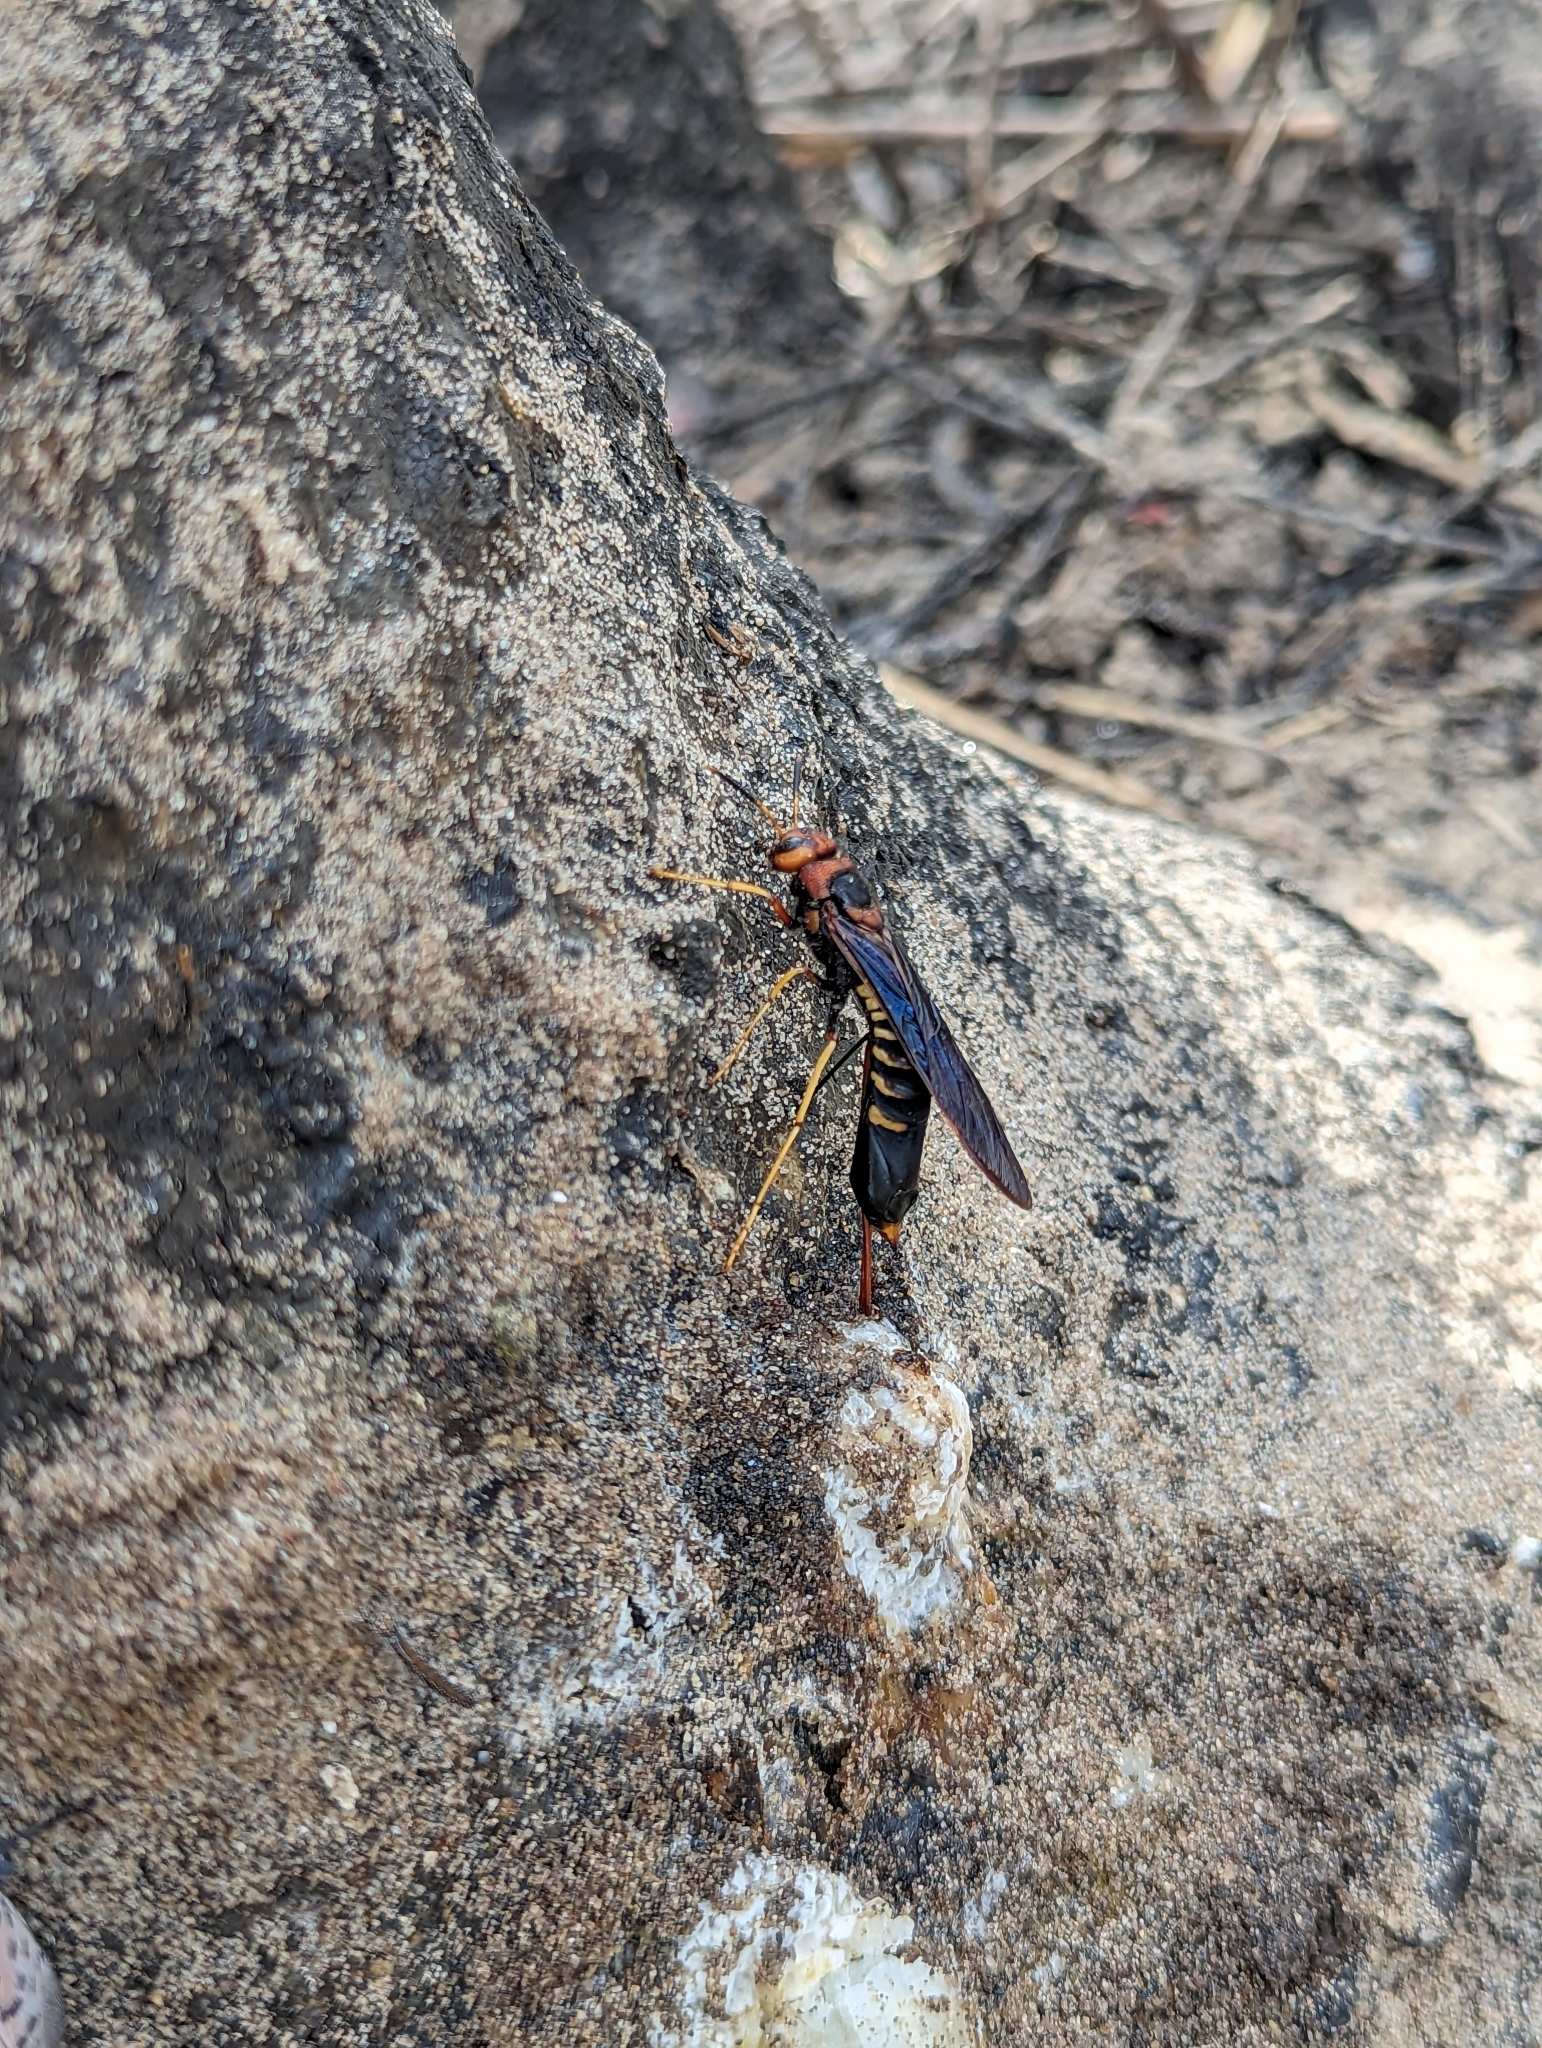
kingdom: Animalia
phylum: Arthropoda
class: Insecta
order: Hymenoptera
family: Siricidae
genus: Tremex
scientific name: Tremex columba
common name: Wasp
